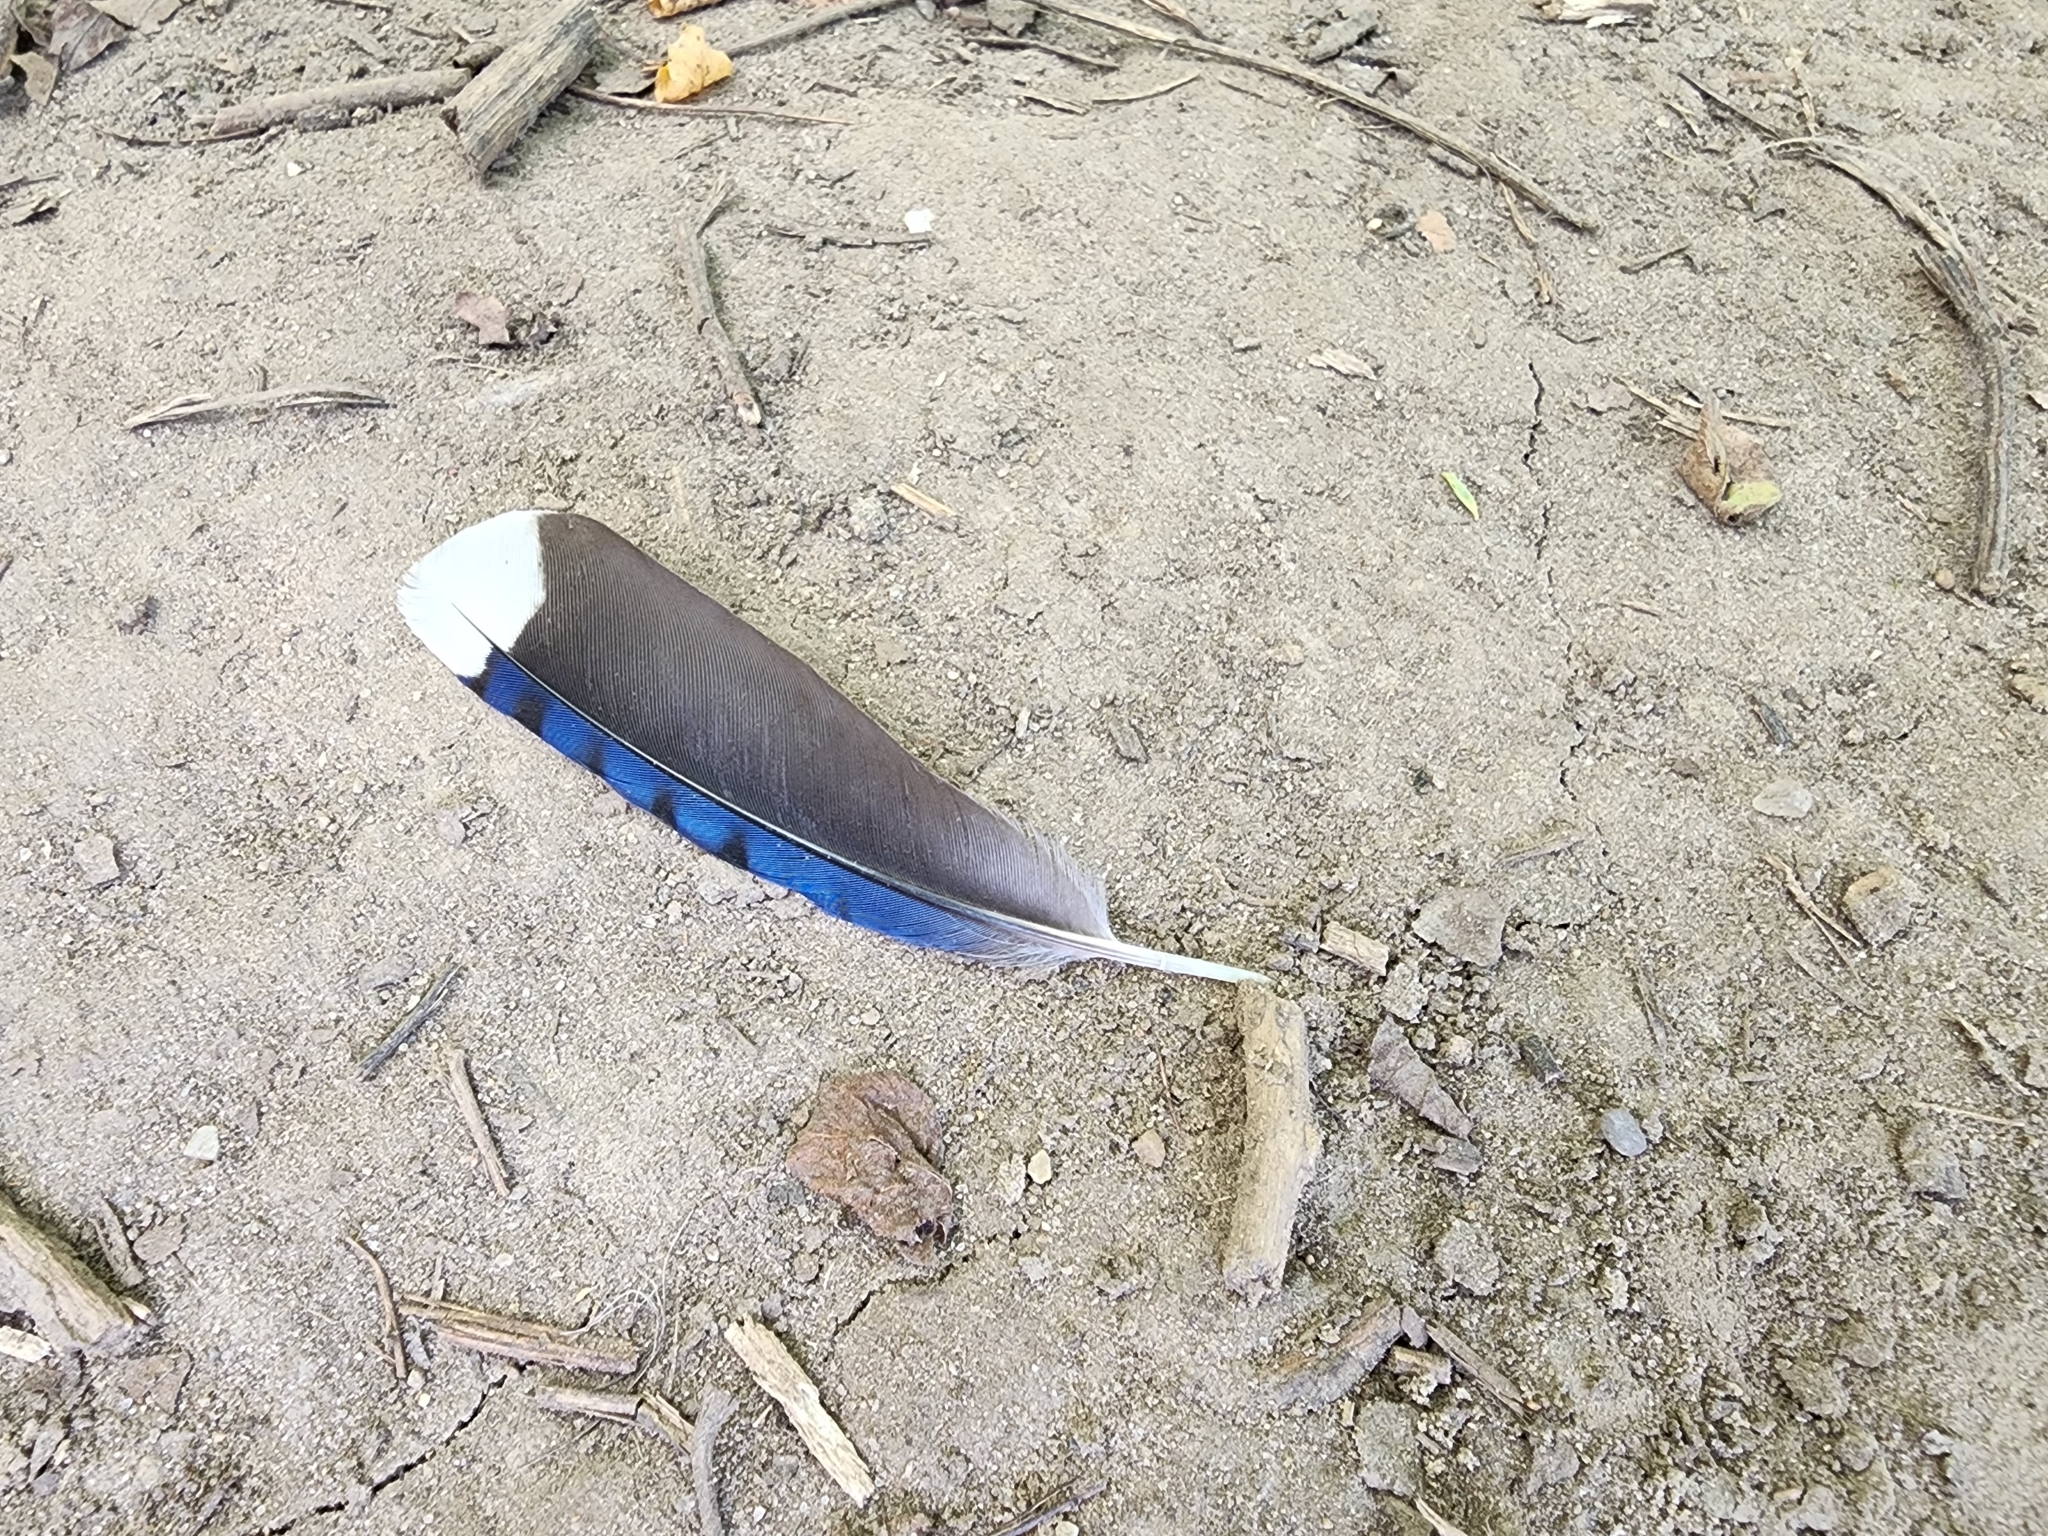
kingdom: Animalia
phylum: Chordata
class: Aves
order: Passeriformes
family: Corvidae
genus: Cyanocitta
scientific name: Cyanocitta cristata
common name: Blue jay
